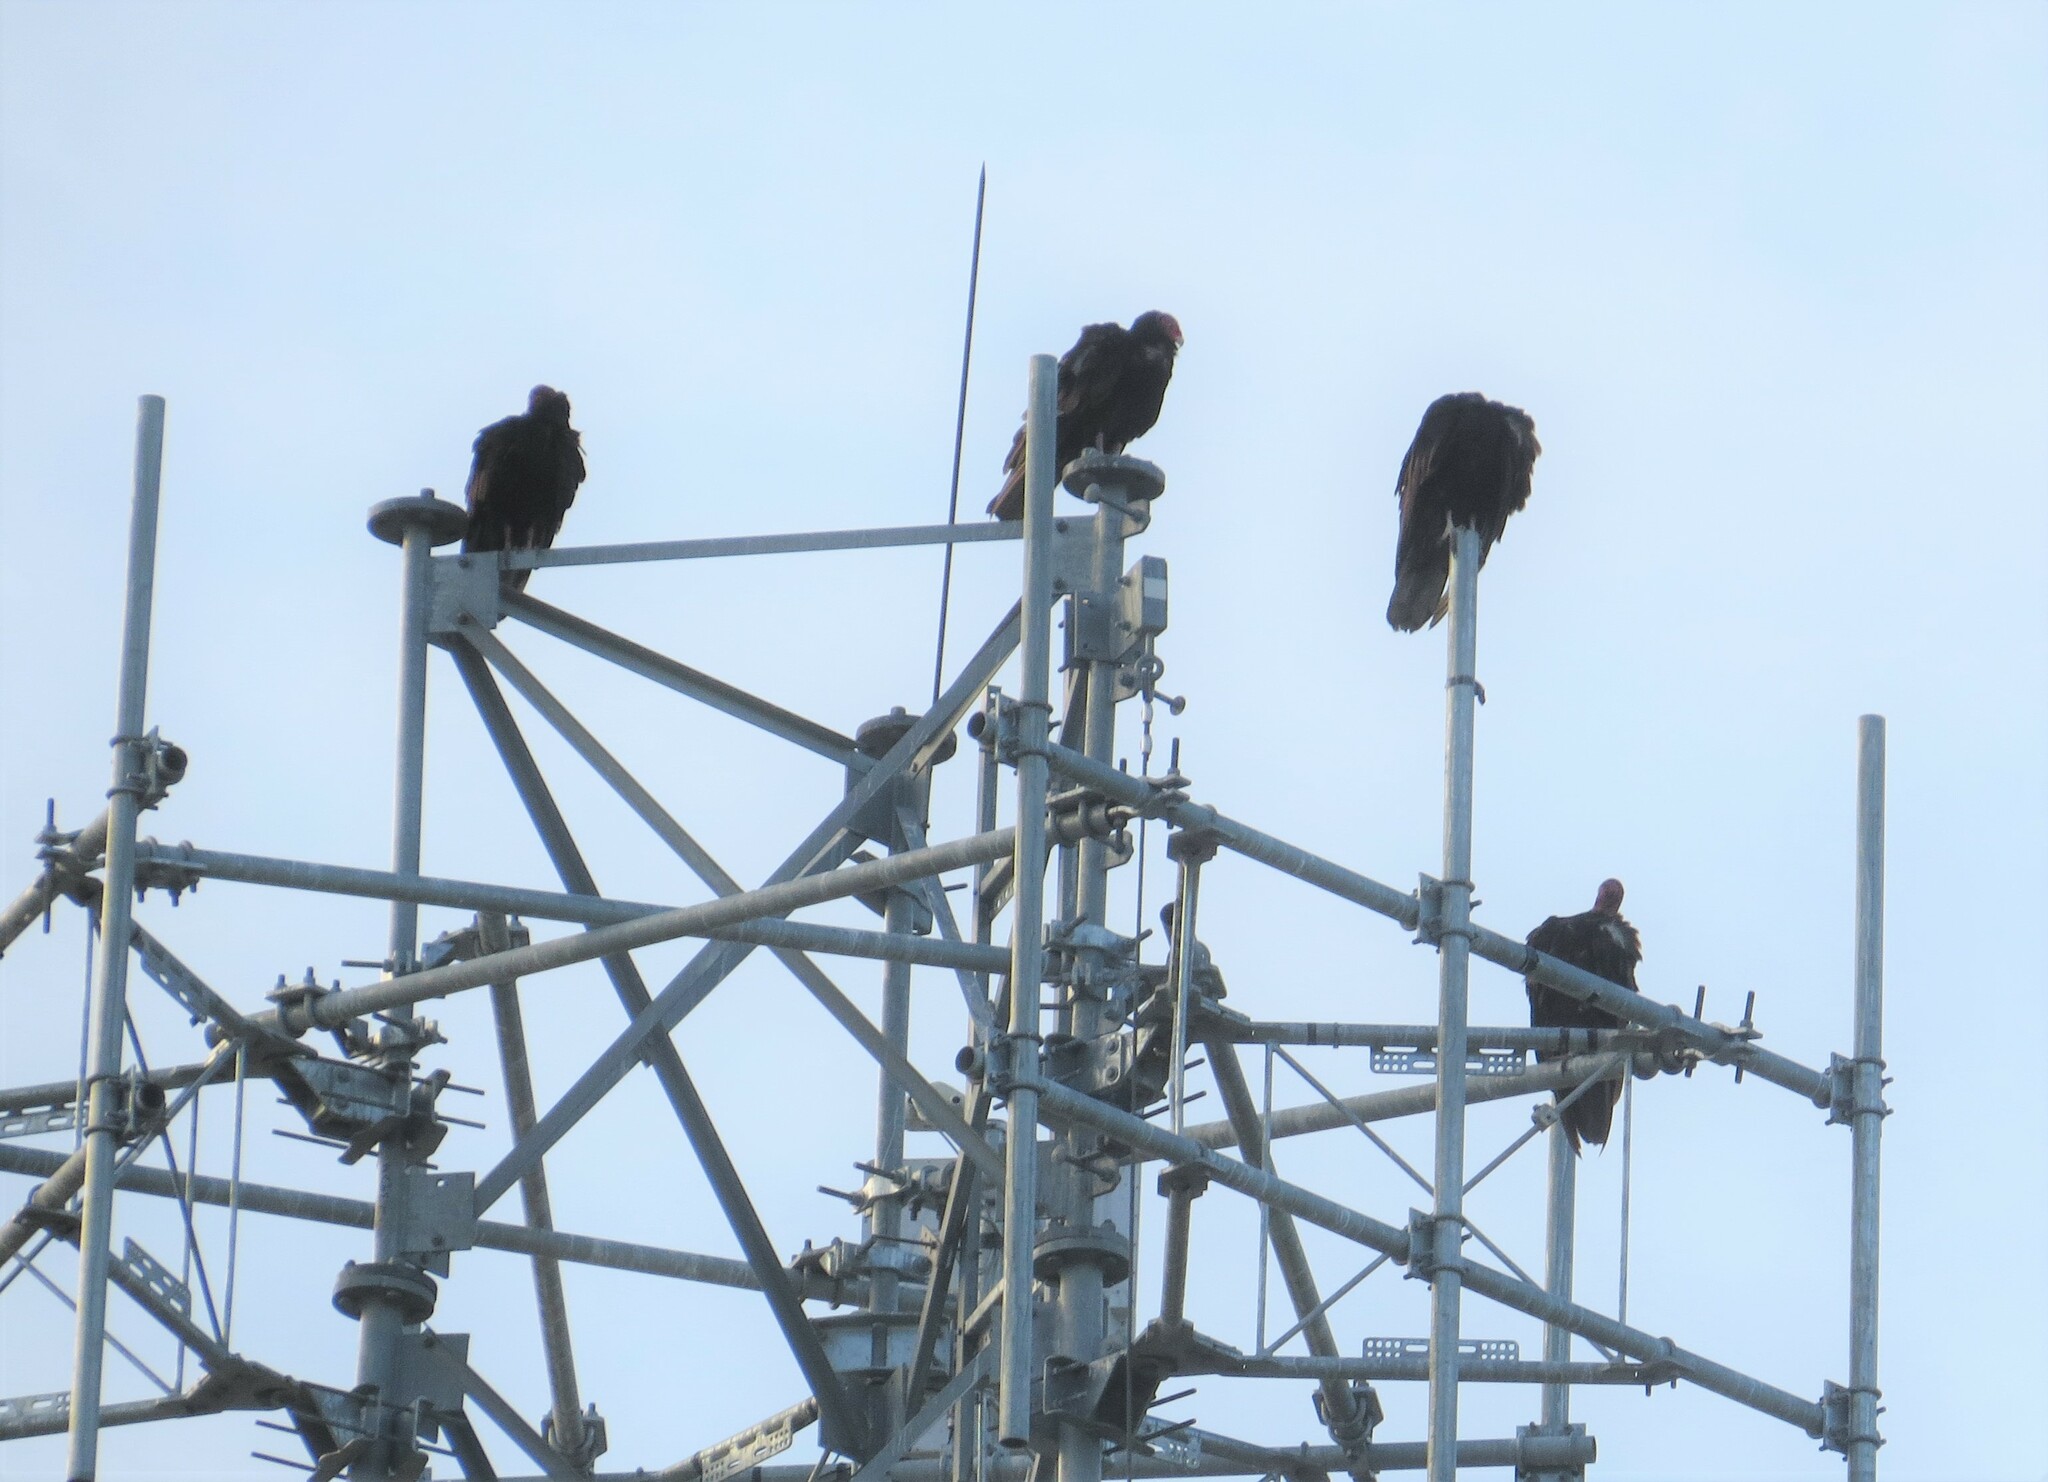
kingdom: Animalia
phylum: Chordata
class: Aves
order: Accipitriformes
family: Cathartidae
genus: Cathartes
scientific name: Cathartes aura
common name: Turkey vulture
